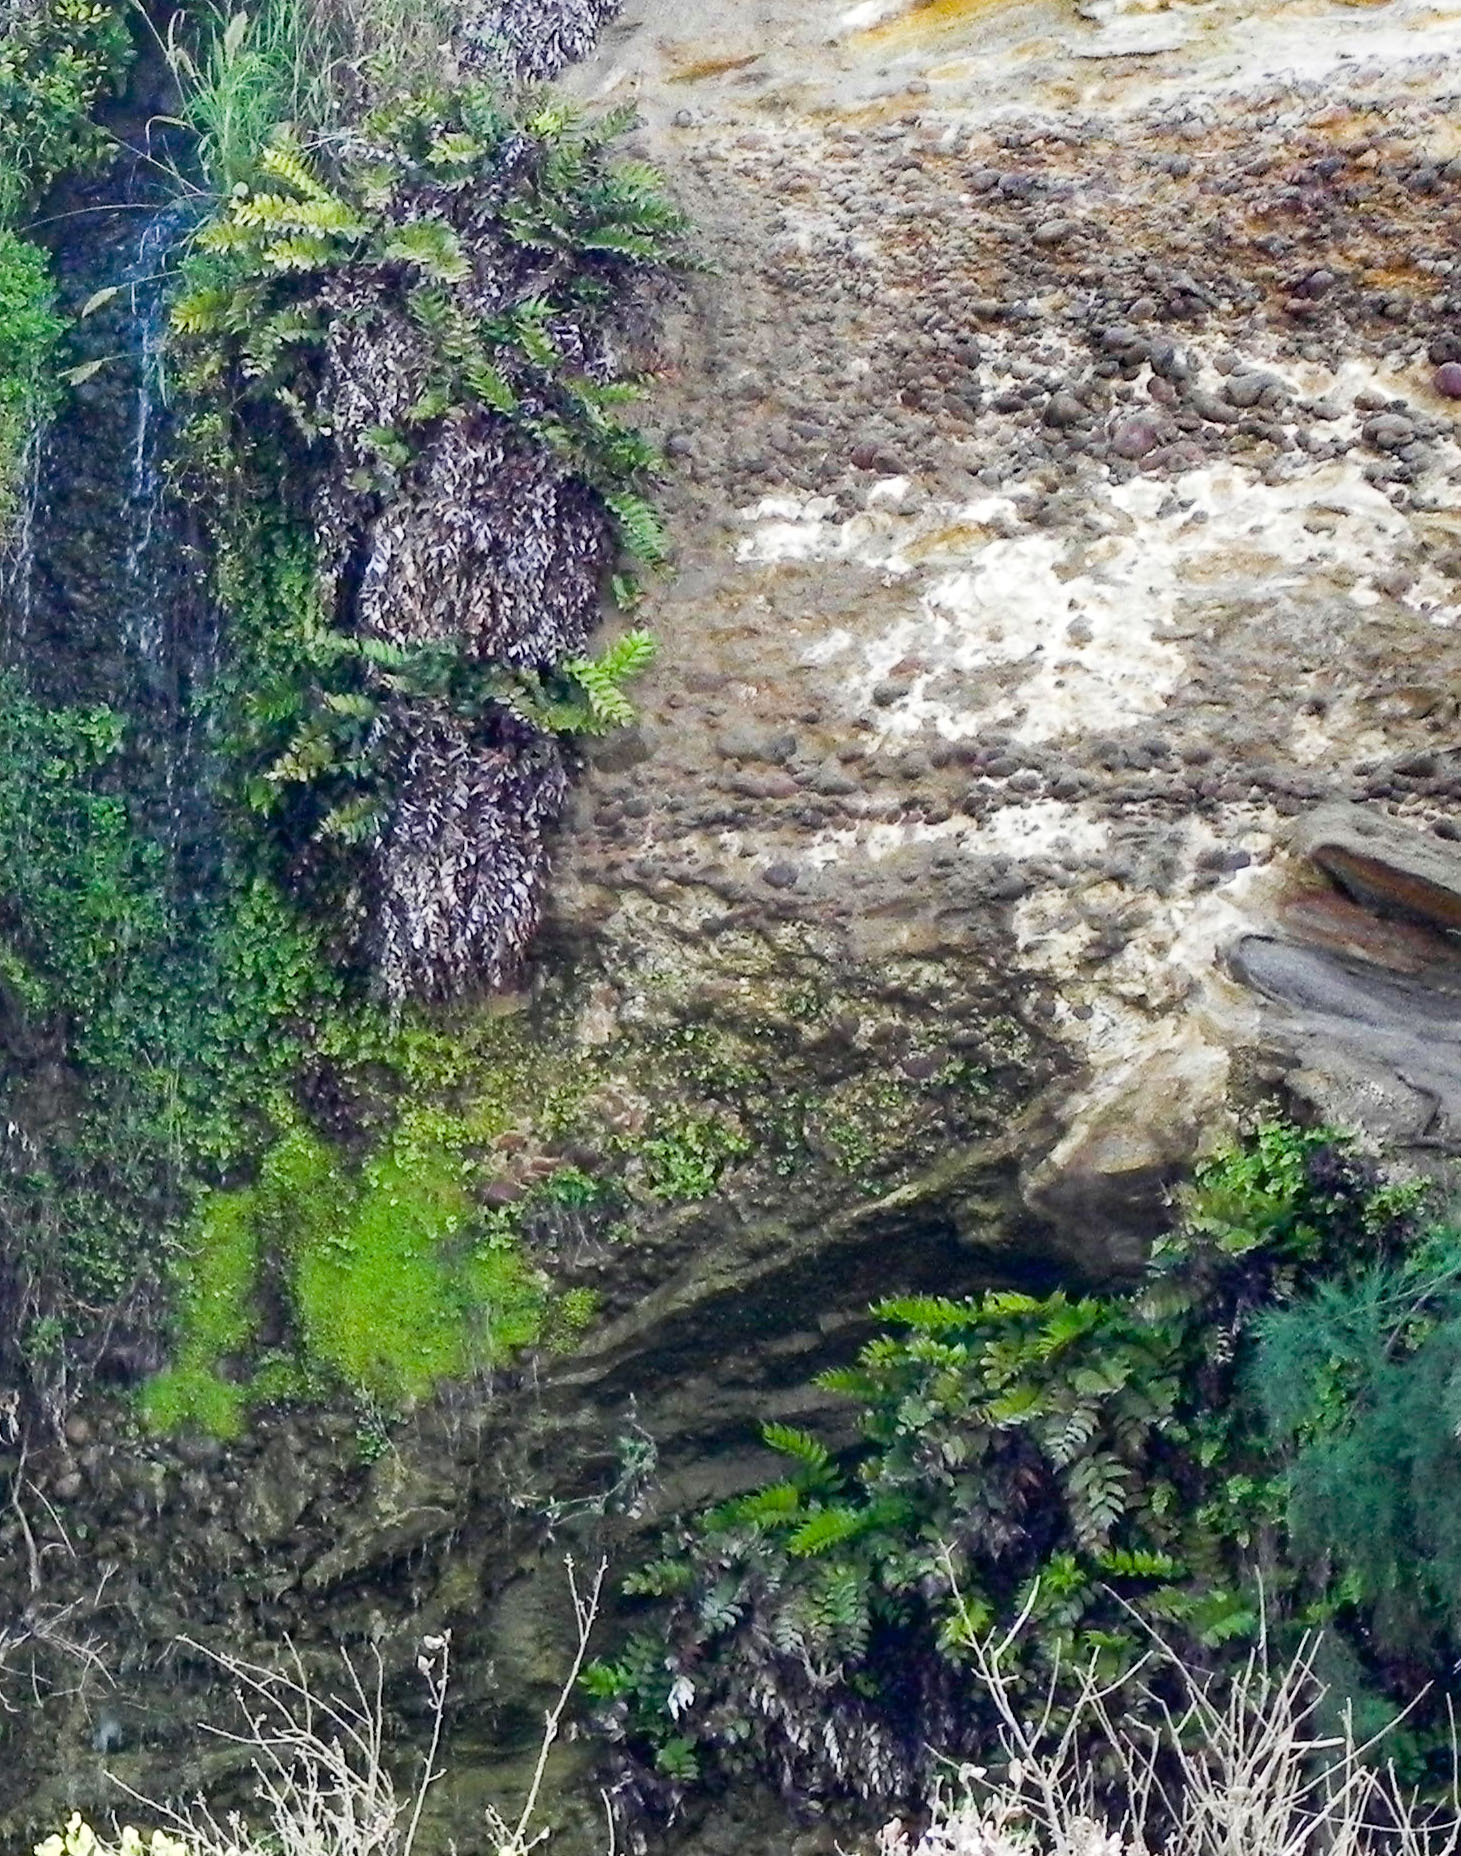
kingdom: Plantae
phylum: Tracheophyta
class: Polypodiopsida
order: Polypodiales
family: Dryopteridaceae
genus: Cyrtomium
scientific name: Cyrtomium falcatum
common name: House holly-fern
